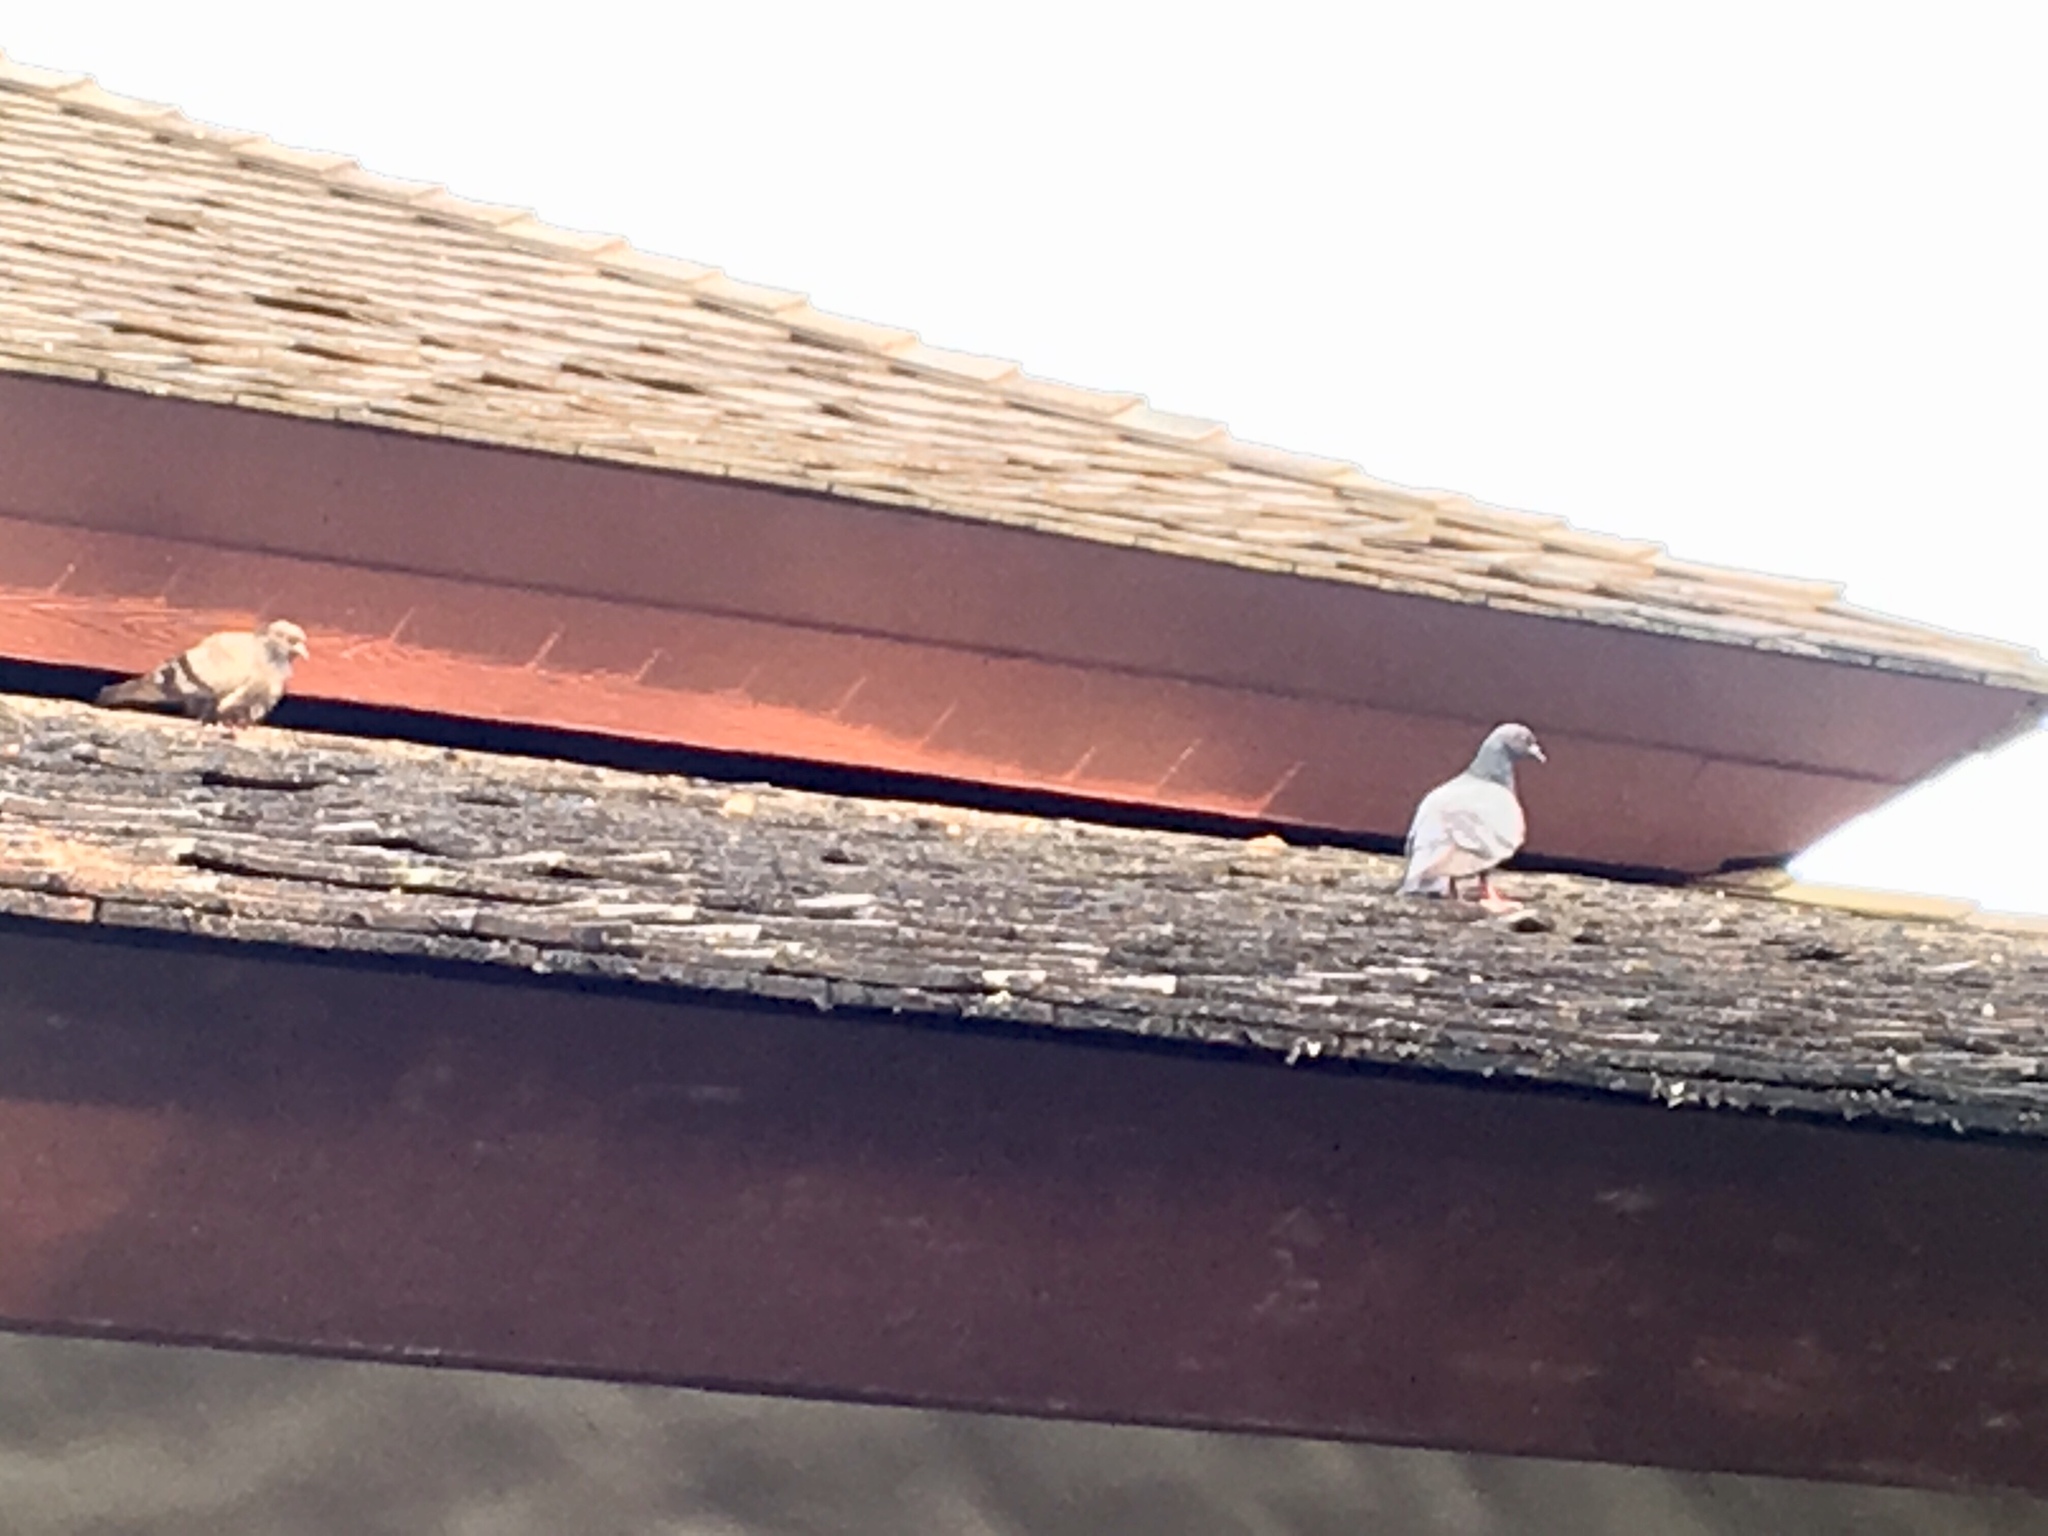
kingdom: Animalia
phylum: Chordata
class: Aves
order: Columbiformes
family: Columbidae
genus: Columba
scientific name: Columba livia
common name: Rock pigeon
